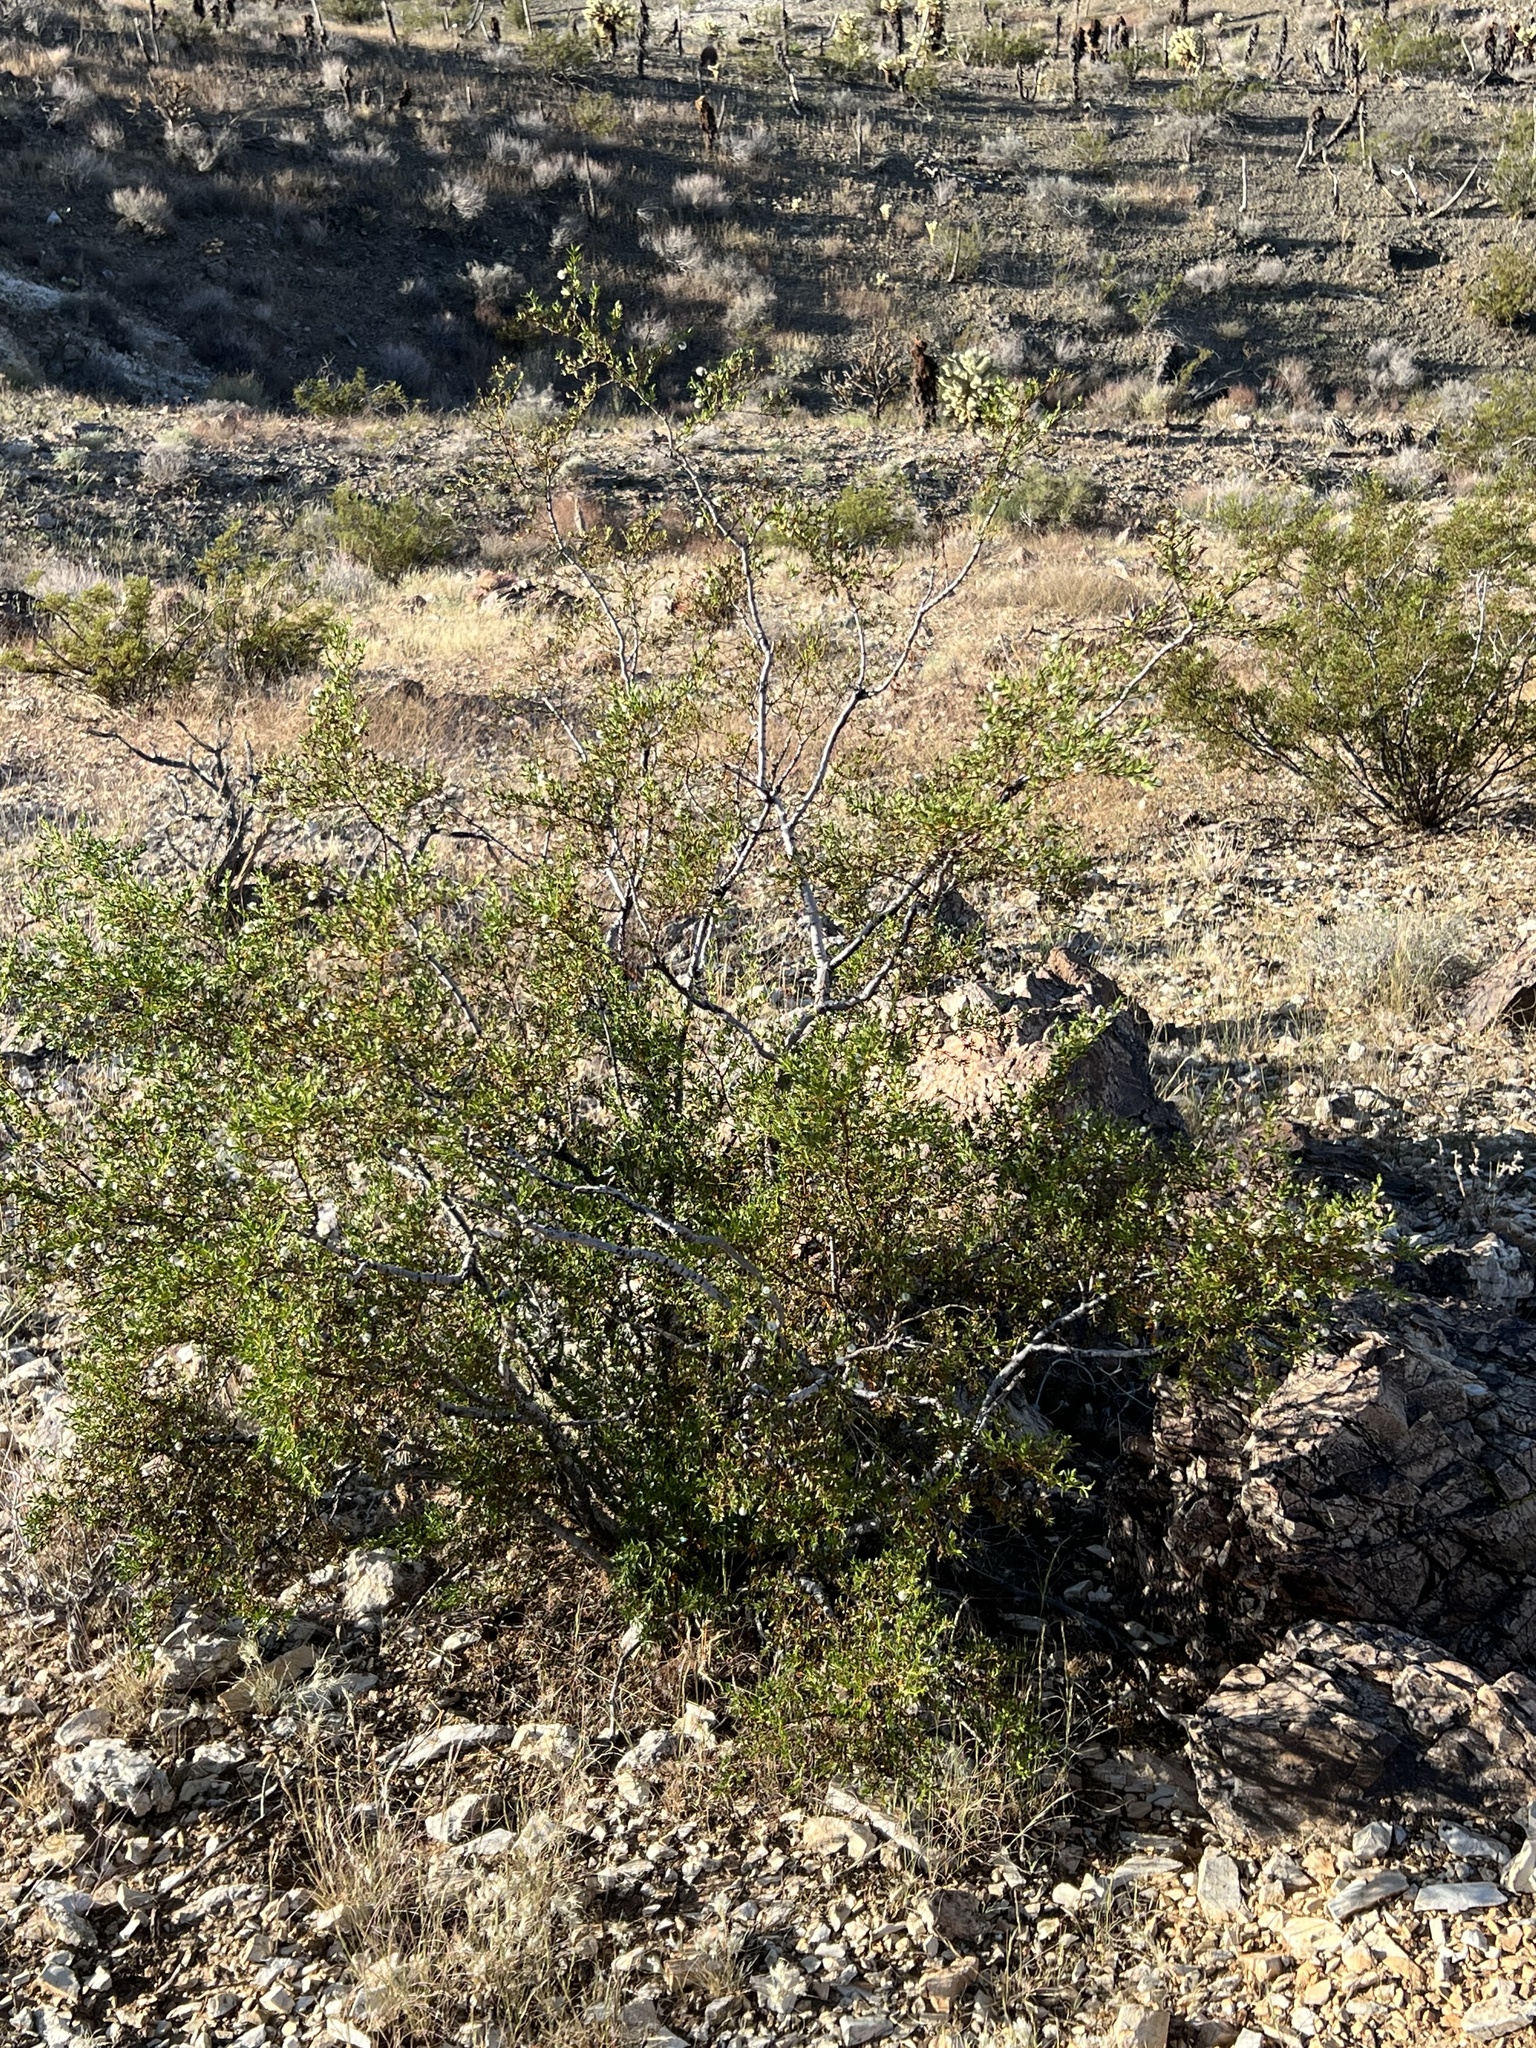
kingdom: Plantae
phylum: Tracheophyta
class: Magnoliopsida
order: Zygophyllales
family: Zygophyllaceae
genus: Larrea
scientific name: Larrea tridentata
